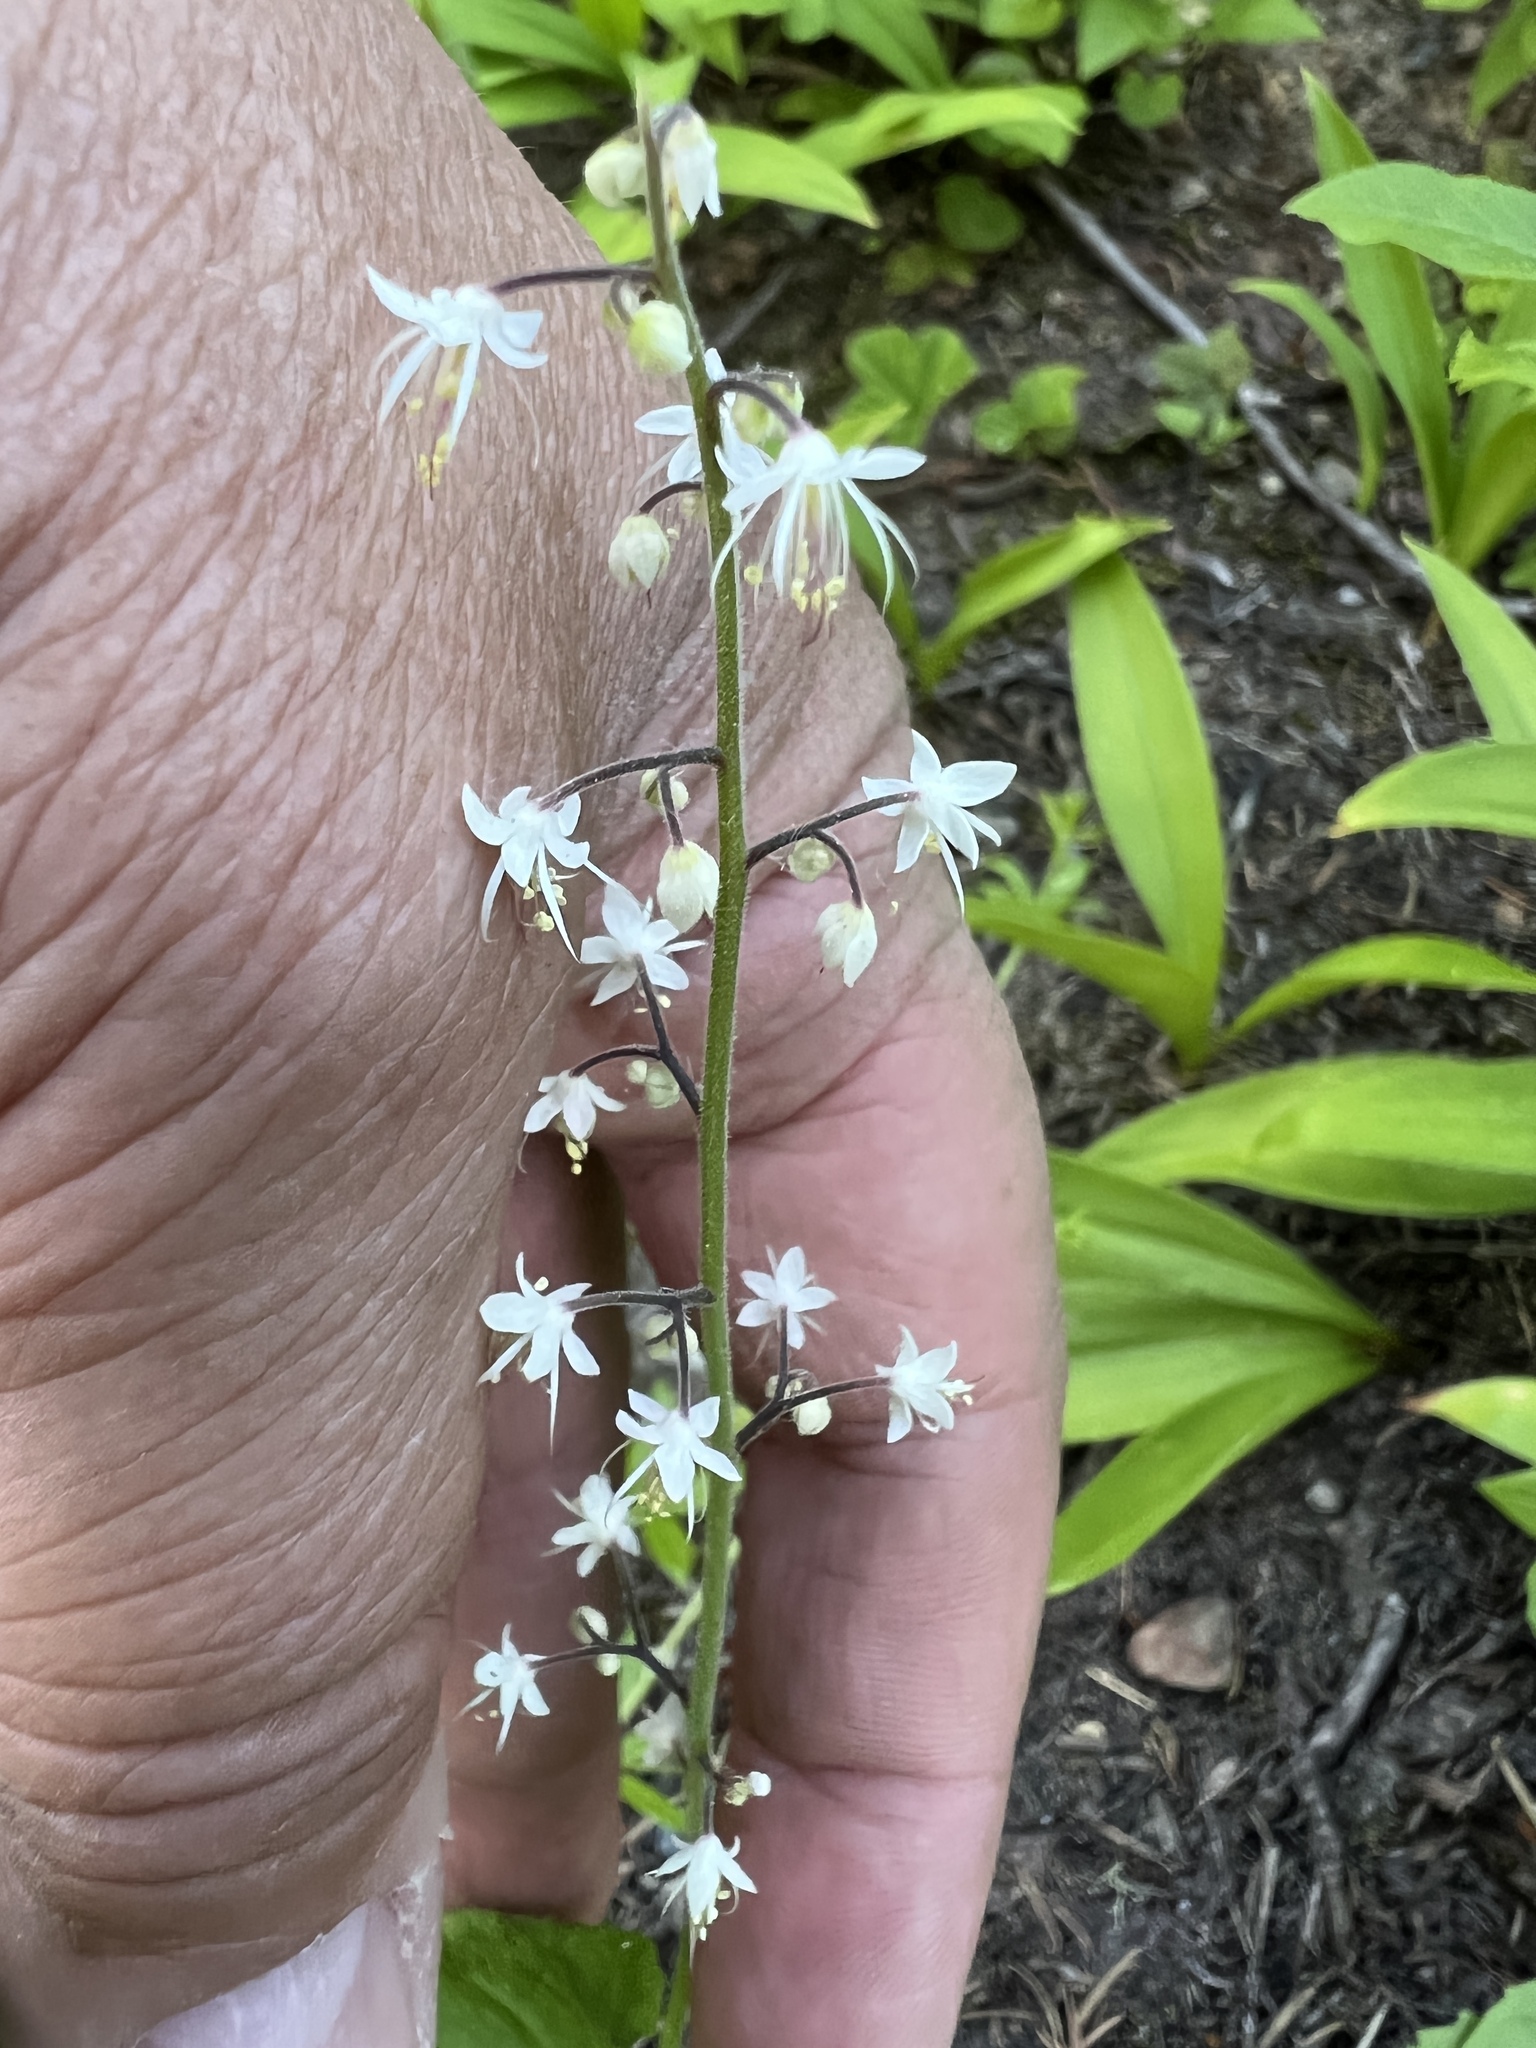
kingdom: Plantae
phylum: Tracheophyta
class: Magnoliopsida
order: Saxifragales
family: Saxifragaceae
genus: Tiarella
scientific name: Tiarella trifoliata
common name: Sugar-scoop
